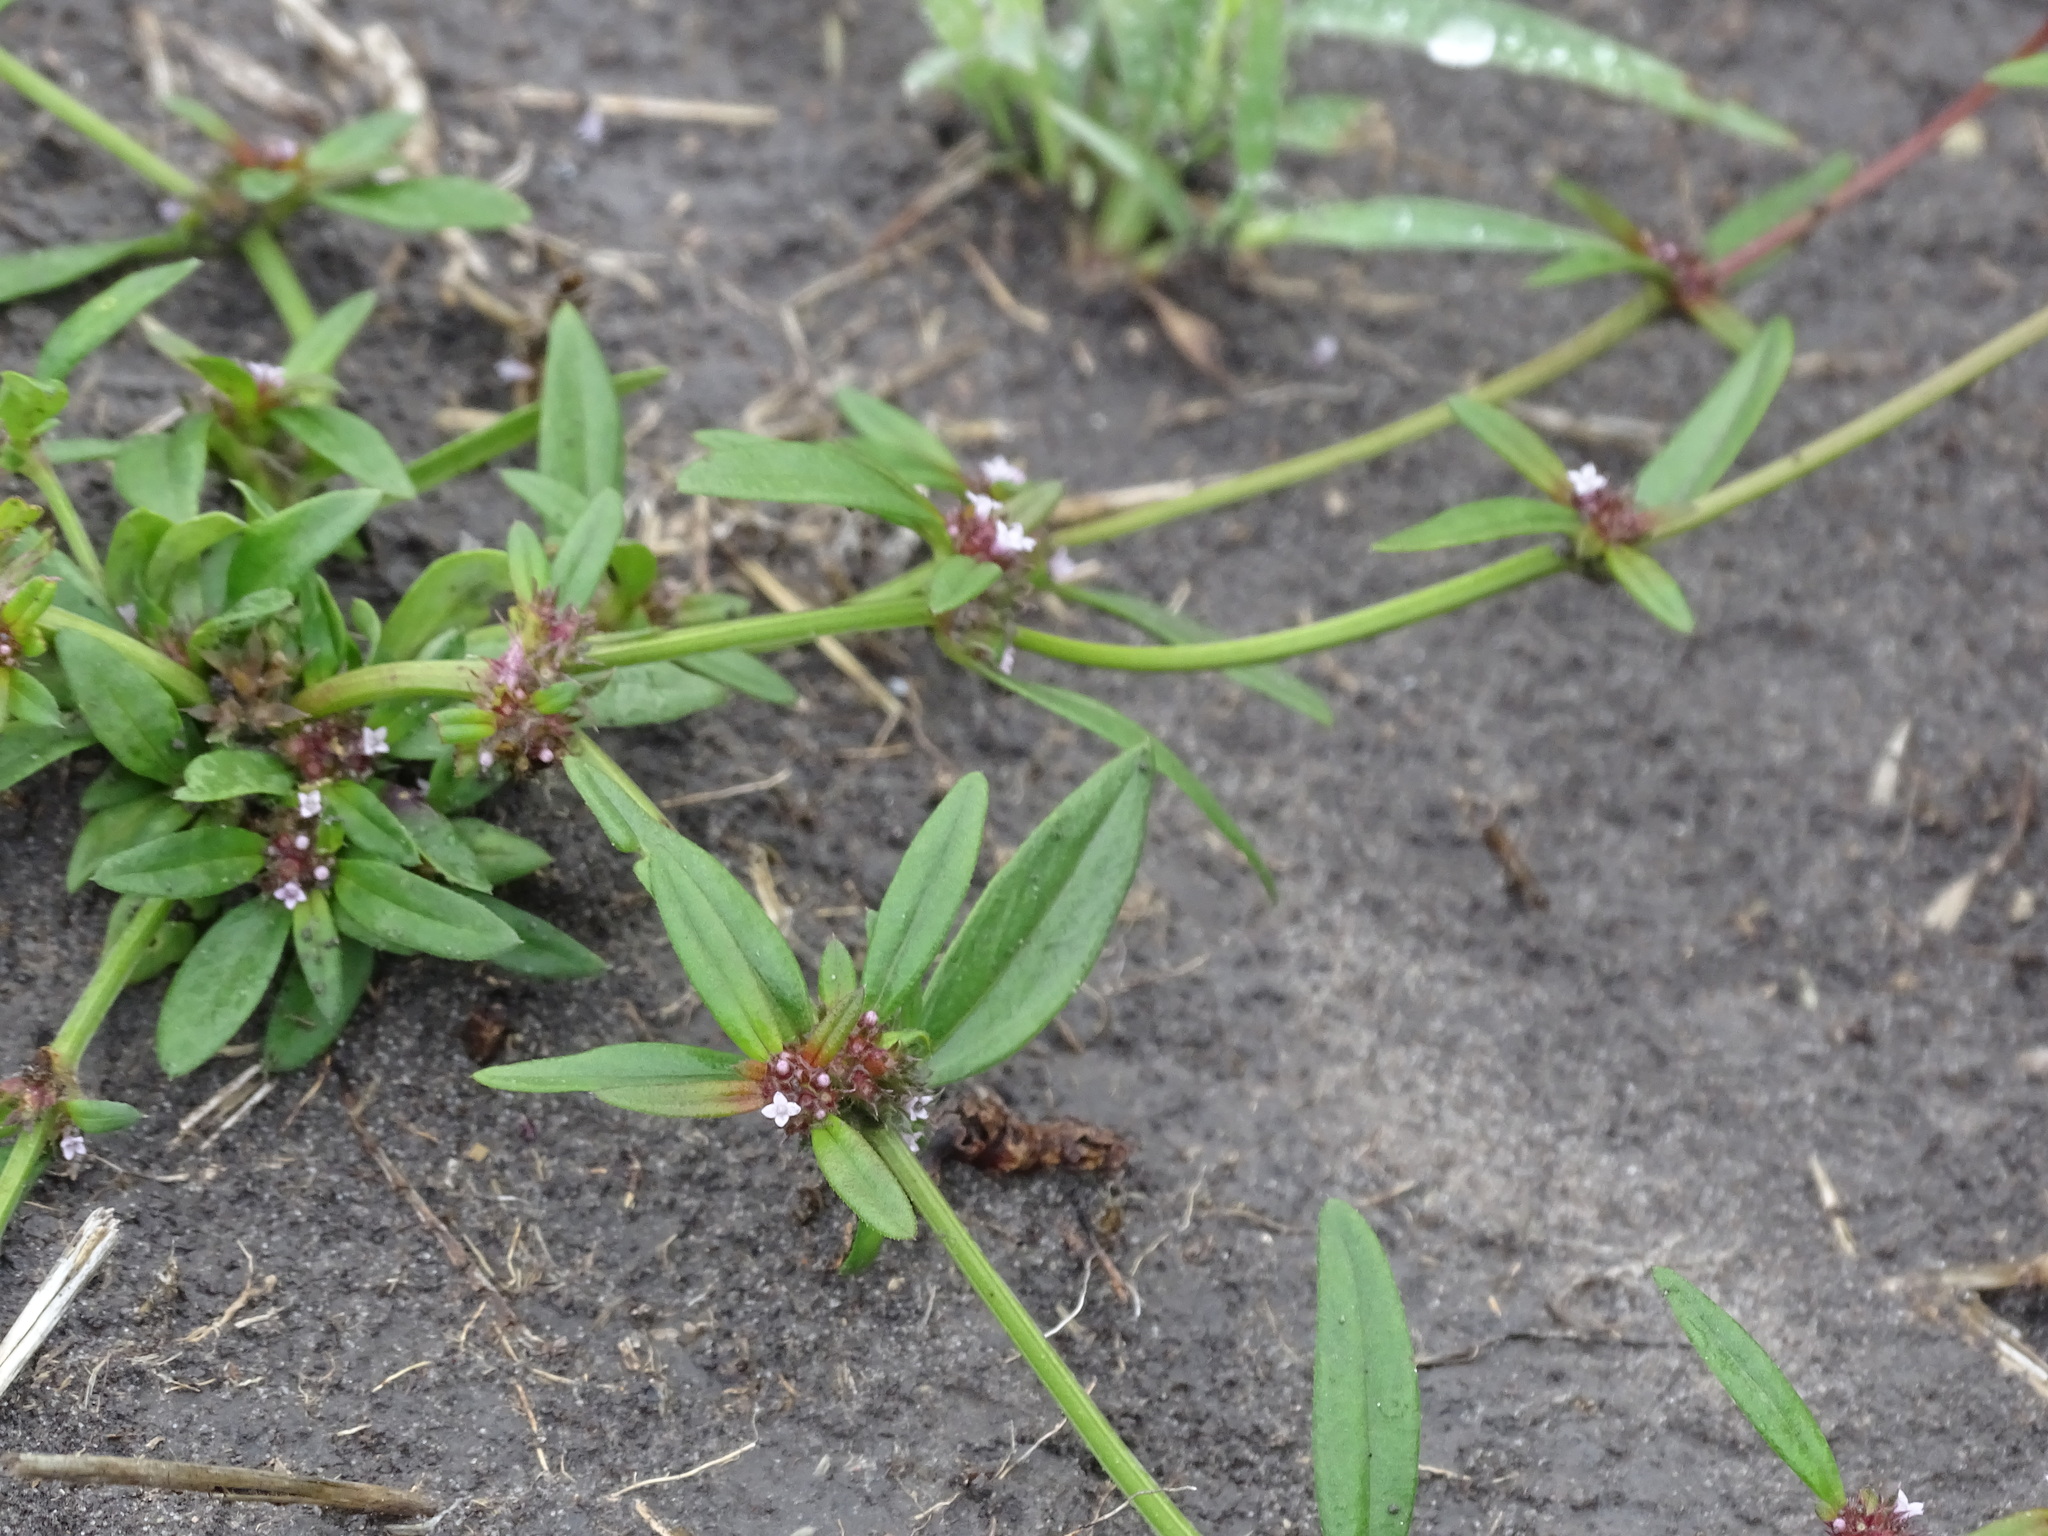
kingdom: Plantae
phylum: Tracheophyta
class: Magnoliopsida
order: Gentianales
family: Rubiaceae
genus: Spermacoce
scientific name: Spermacoce confusa
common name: Iron-grass
